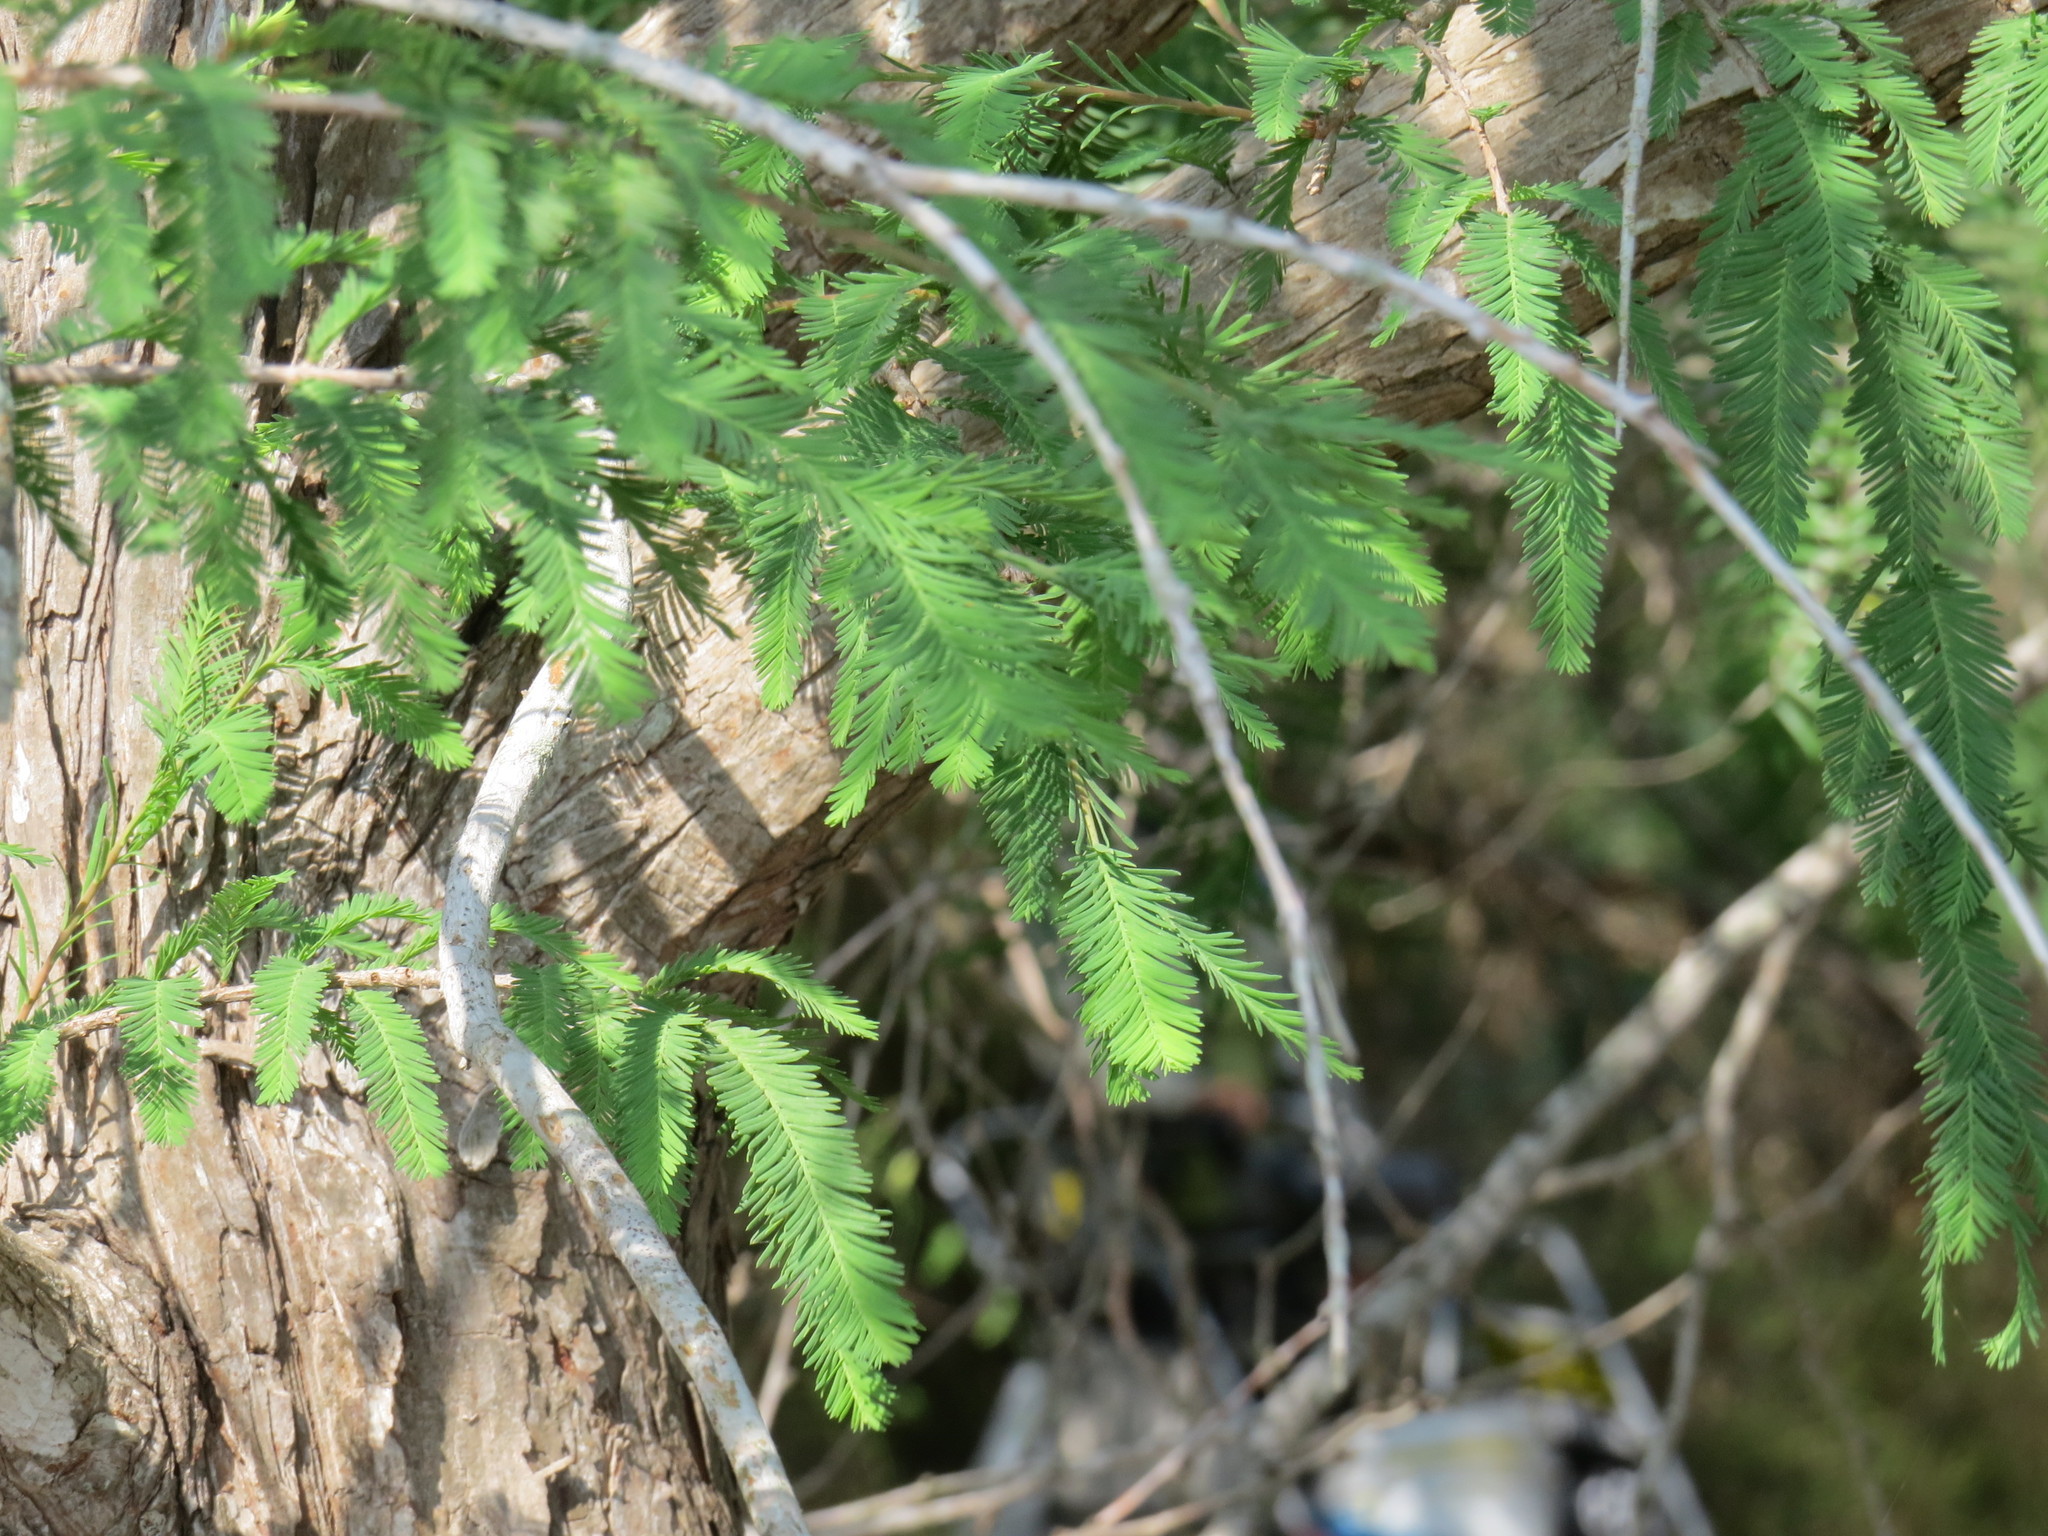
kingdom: Plantae
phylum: Tracheophyta
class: Pinopsida
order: Pinales
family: Cupressaceae
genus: Taxodium
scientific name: Taxodium mucronatum
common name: Montezume bald cypress
